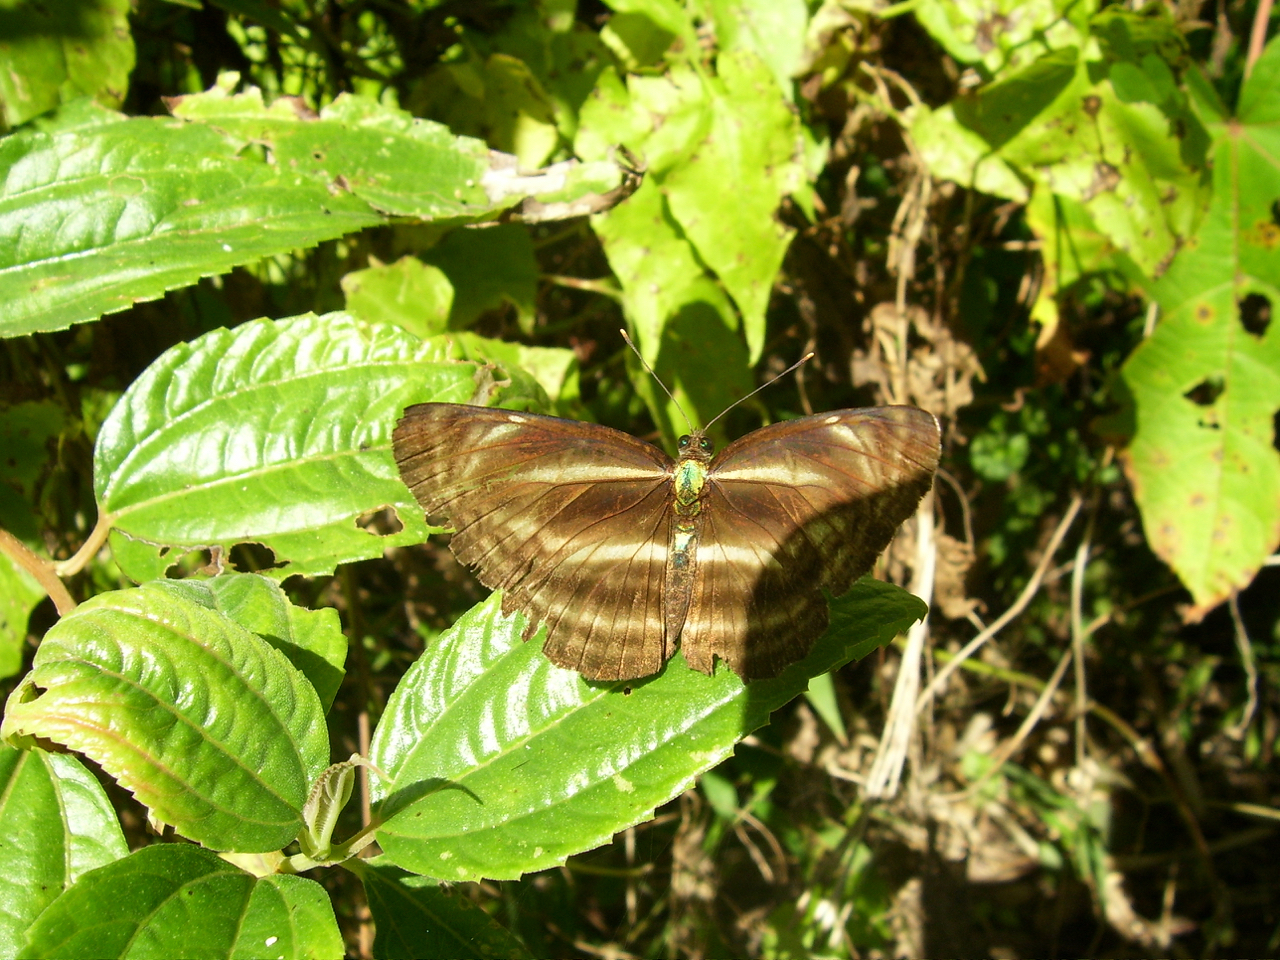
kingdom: Animalia
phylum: Arthropoda
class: Insecta
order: Lepidoptera
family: Nymphalidae
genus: Neptis
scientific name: Neptis
